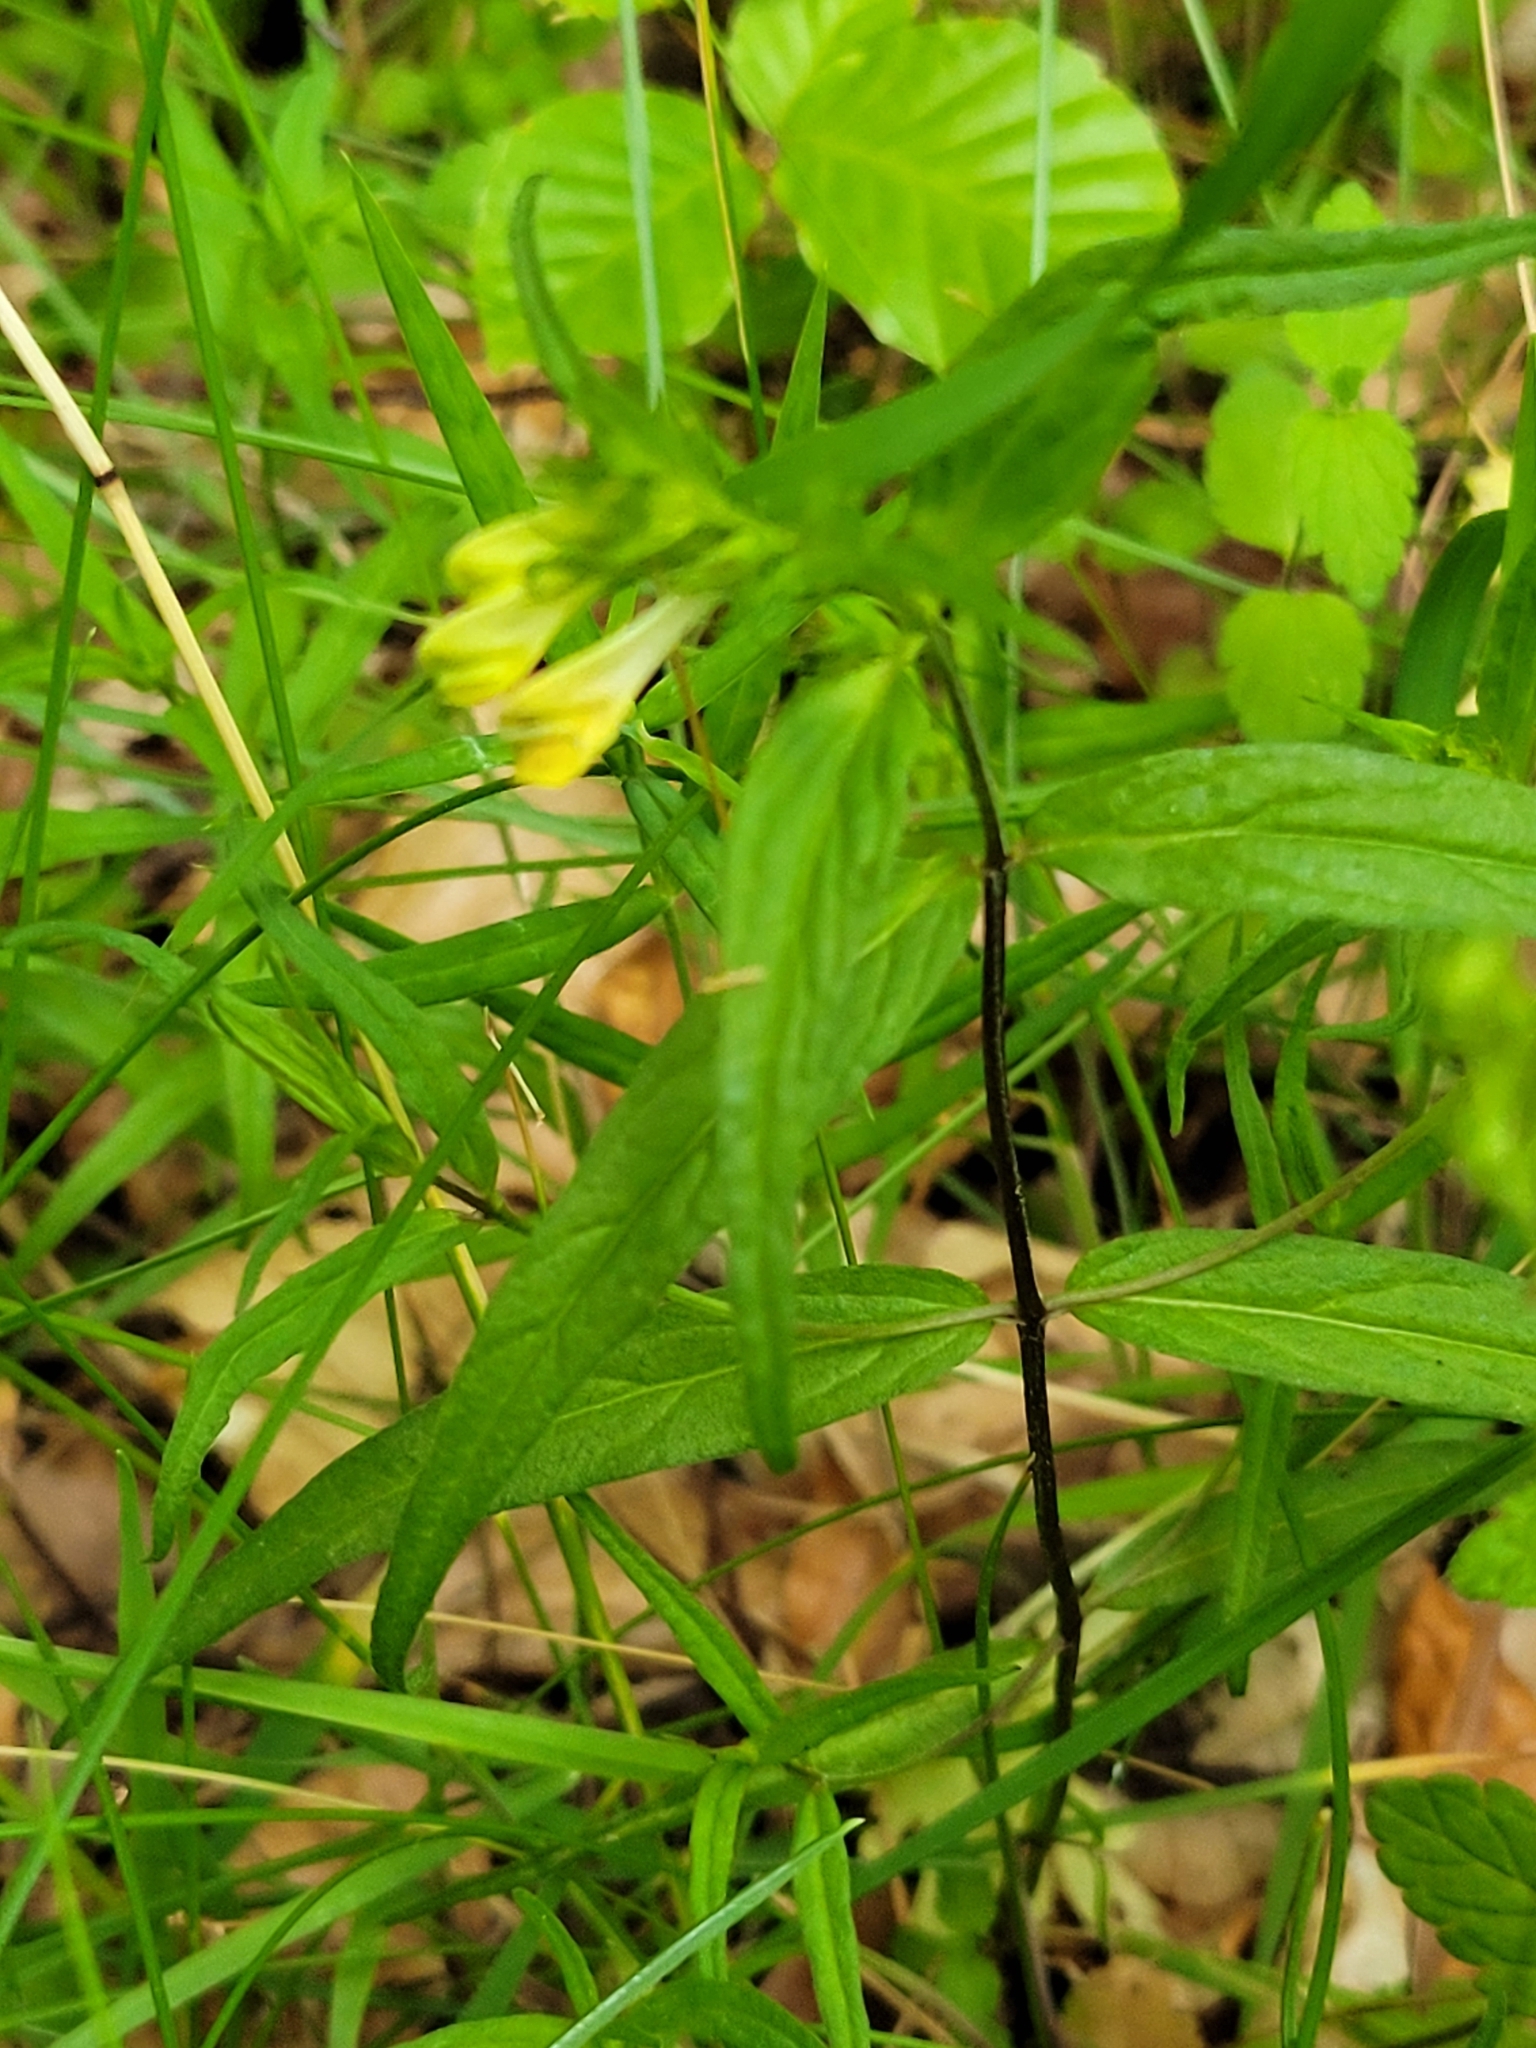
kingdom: Plantae
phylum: Tracheophyta
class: Magnoliopsida
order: Lamiales
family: Orobanchaceae
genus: Melampyrum
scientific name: Melampyrum pratense
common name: Common cow-wheat
